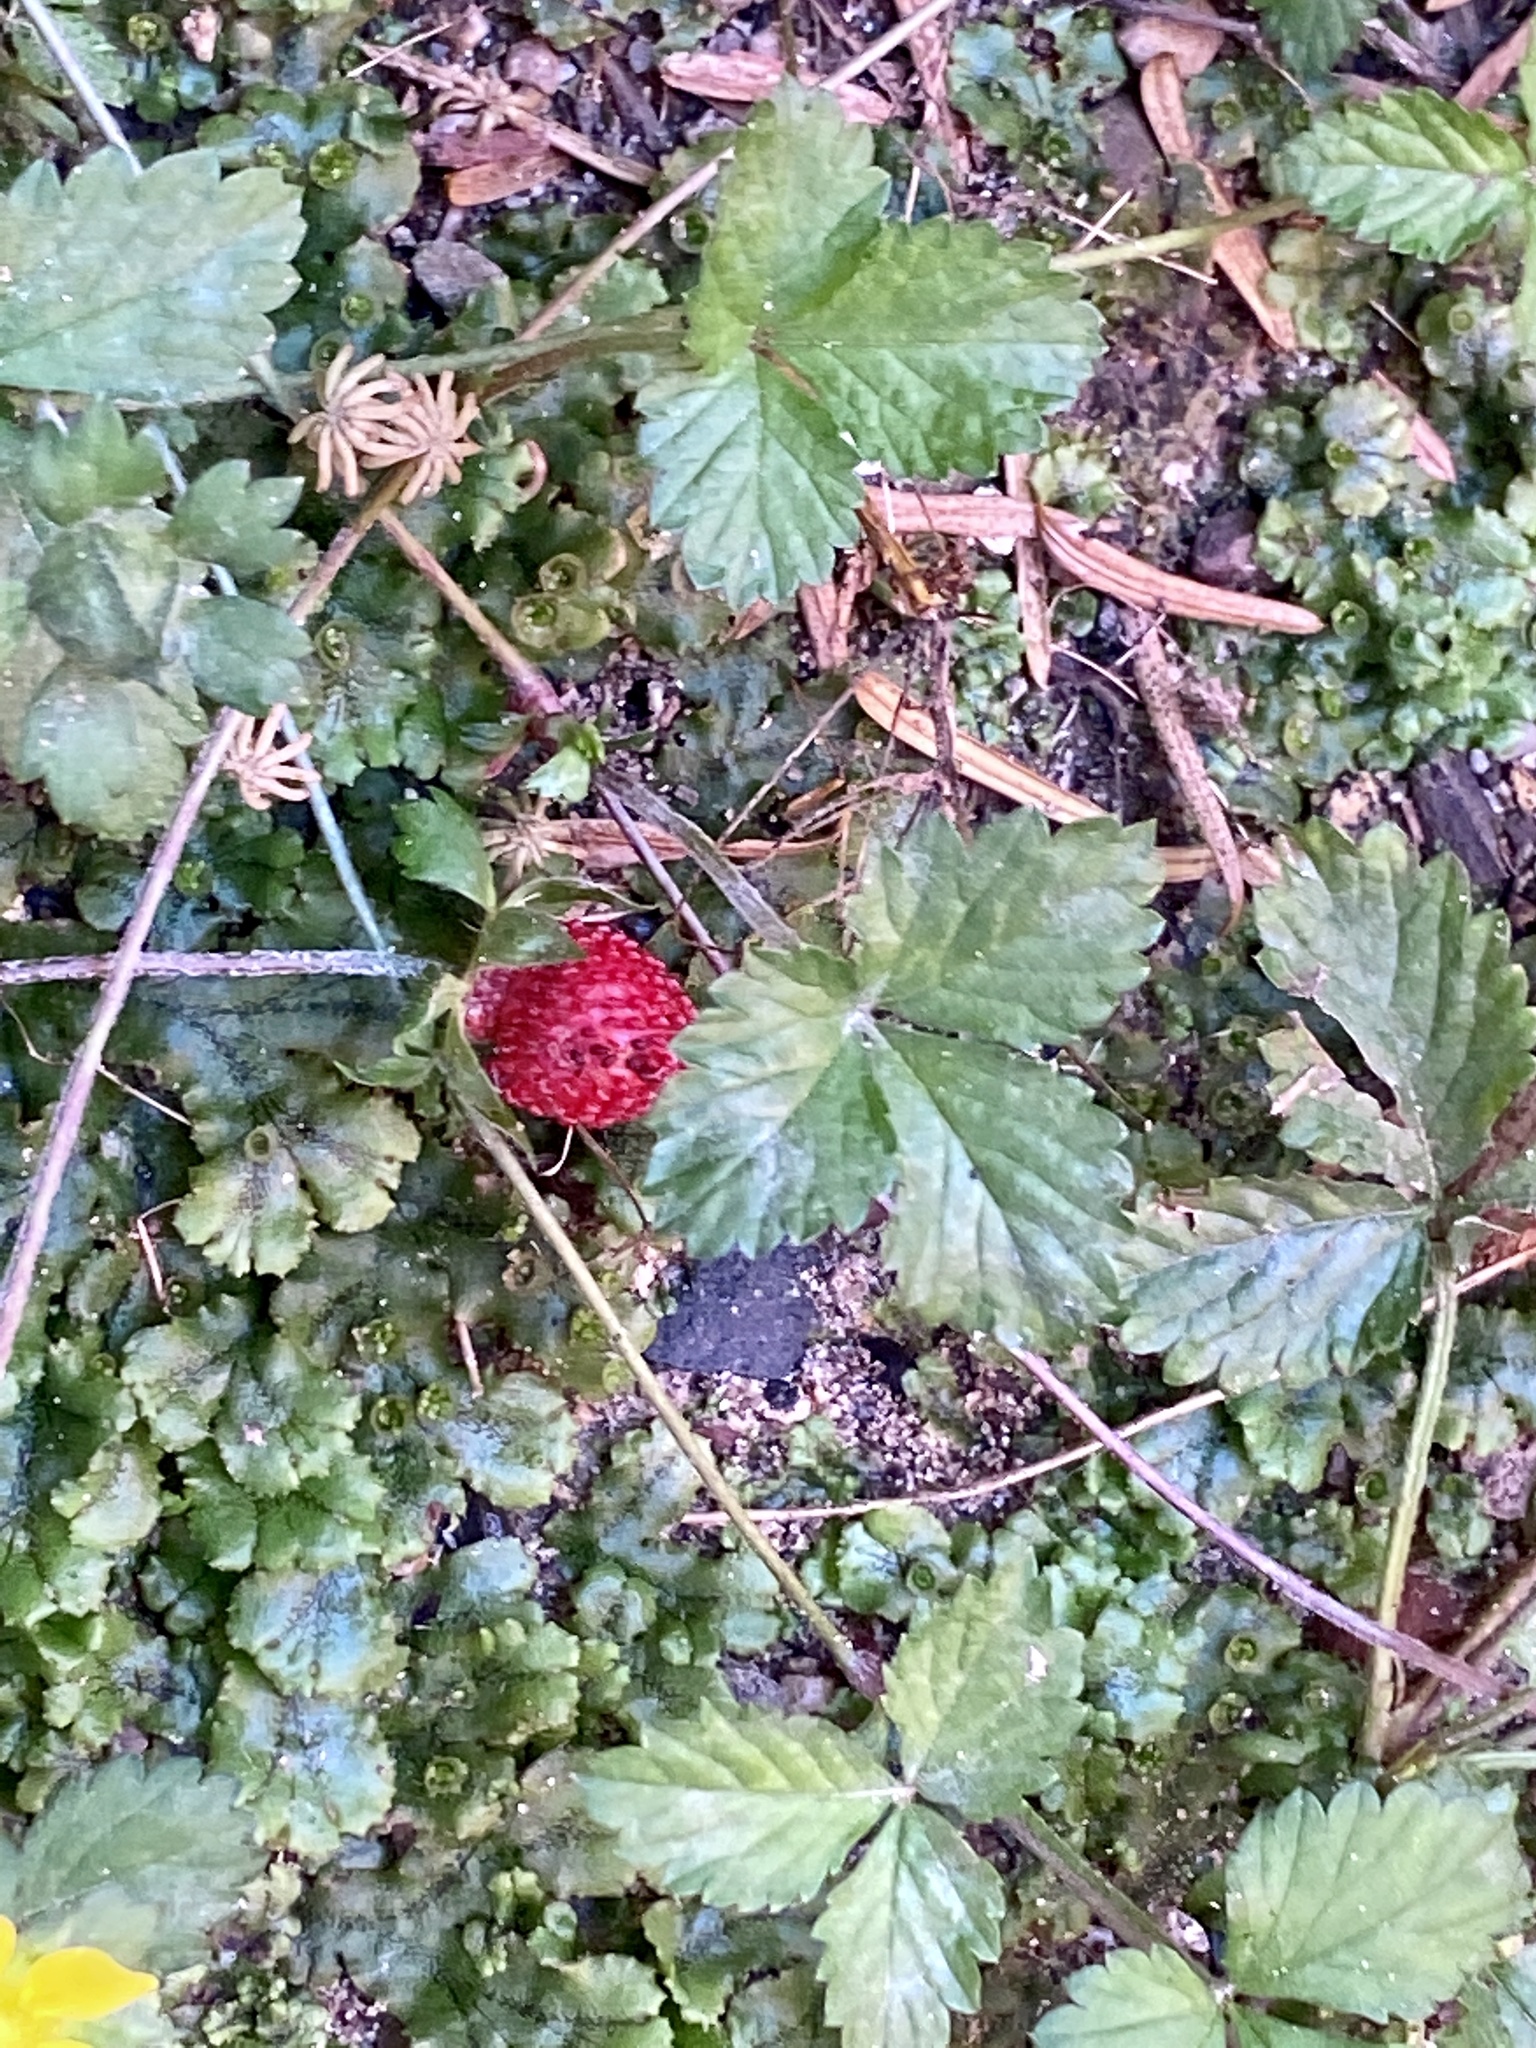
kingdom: Plantae
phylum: Tracheophyta
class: Magnoliopsida
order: Rosales
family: Rosaceae
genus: Potentilla
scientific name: Potentilla indica
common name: Yellow-flowered strawberry
